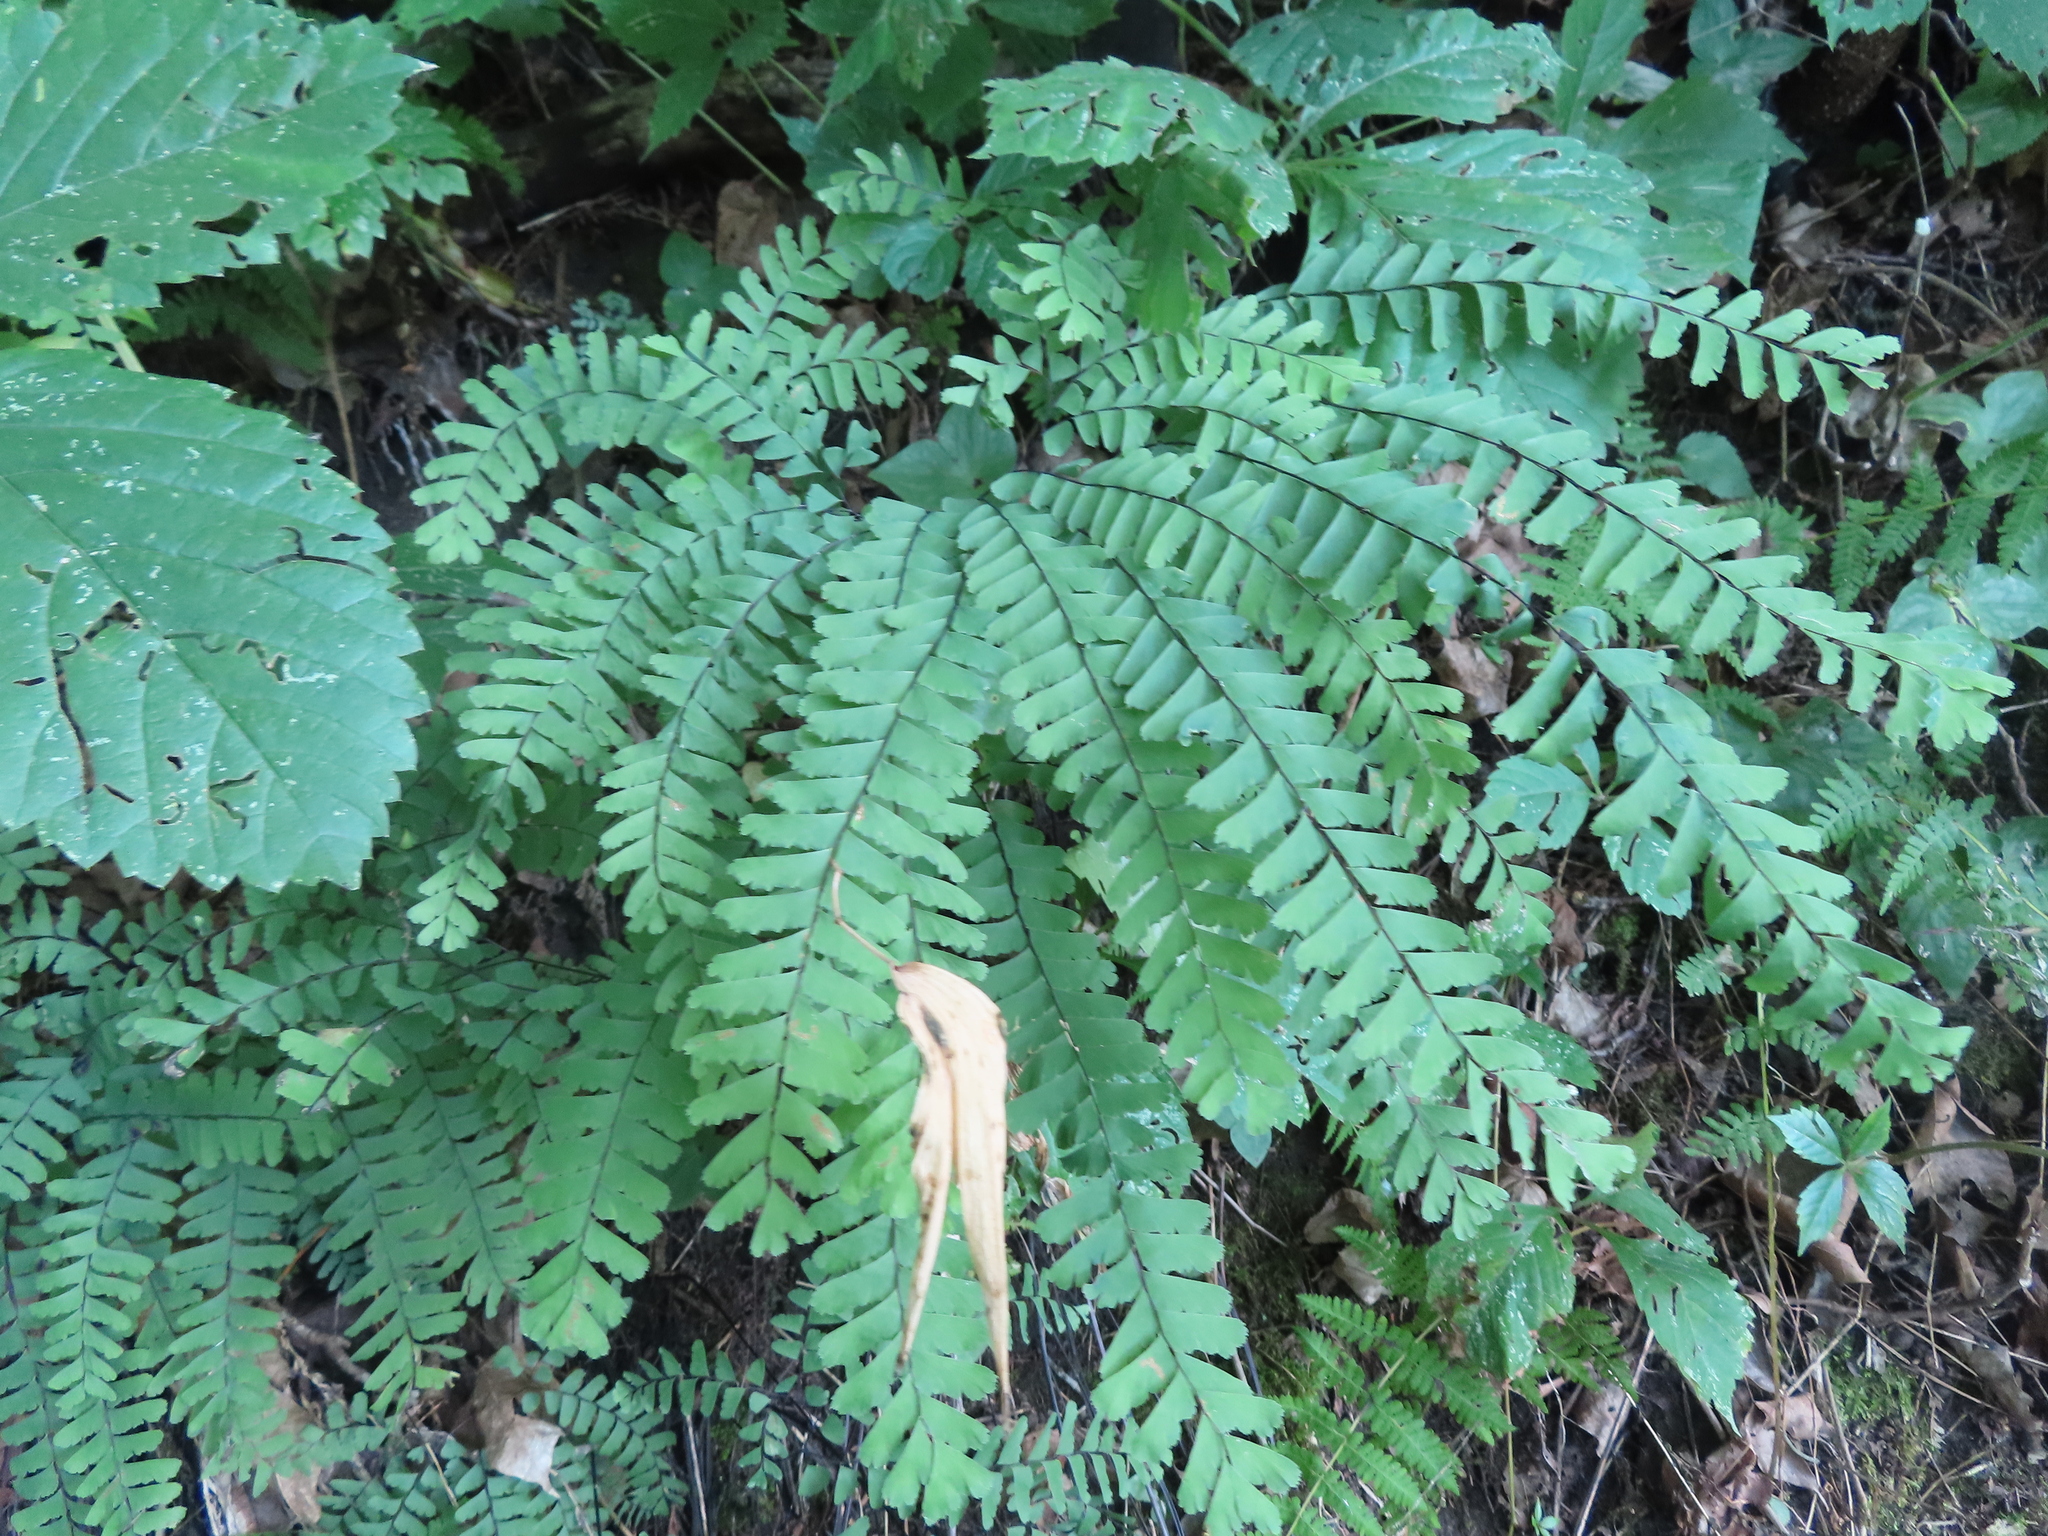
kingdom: Plantae
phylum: Tracheophyta
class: Polypodiopsida
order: Polypodiales
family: Pteridaceae
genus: Adiantum
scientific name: Adiantum pedatum
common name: Five-finger fern
